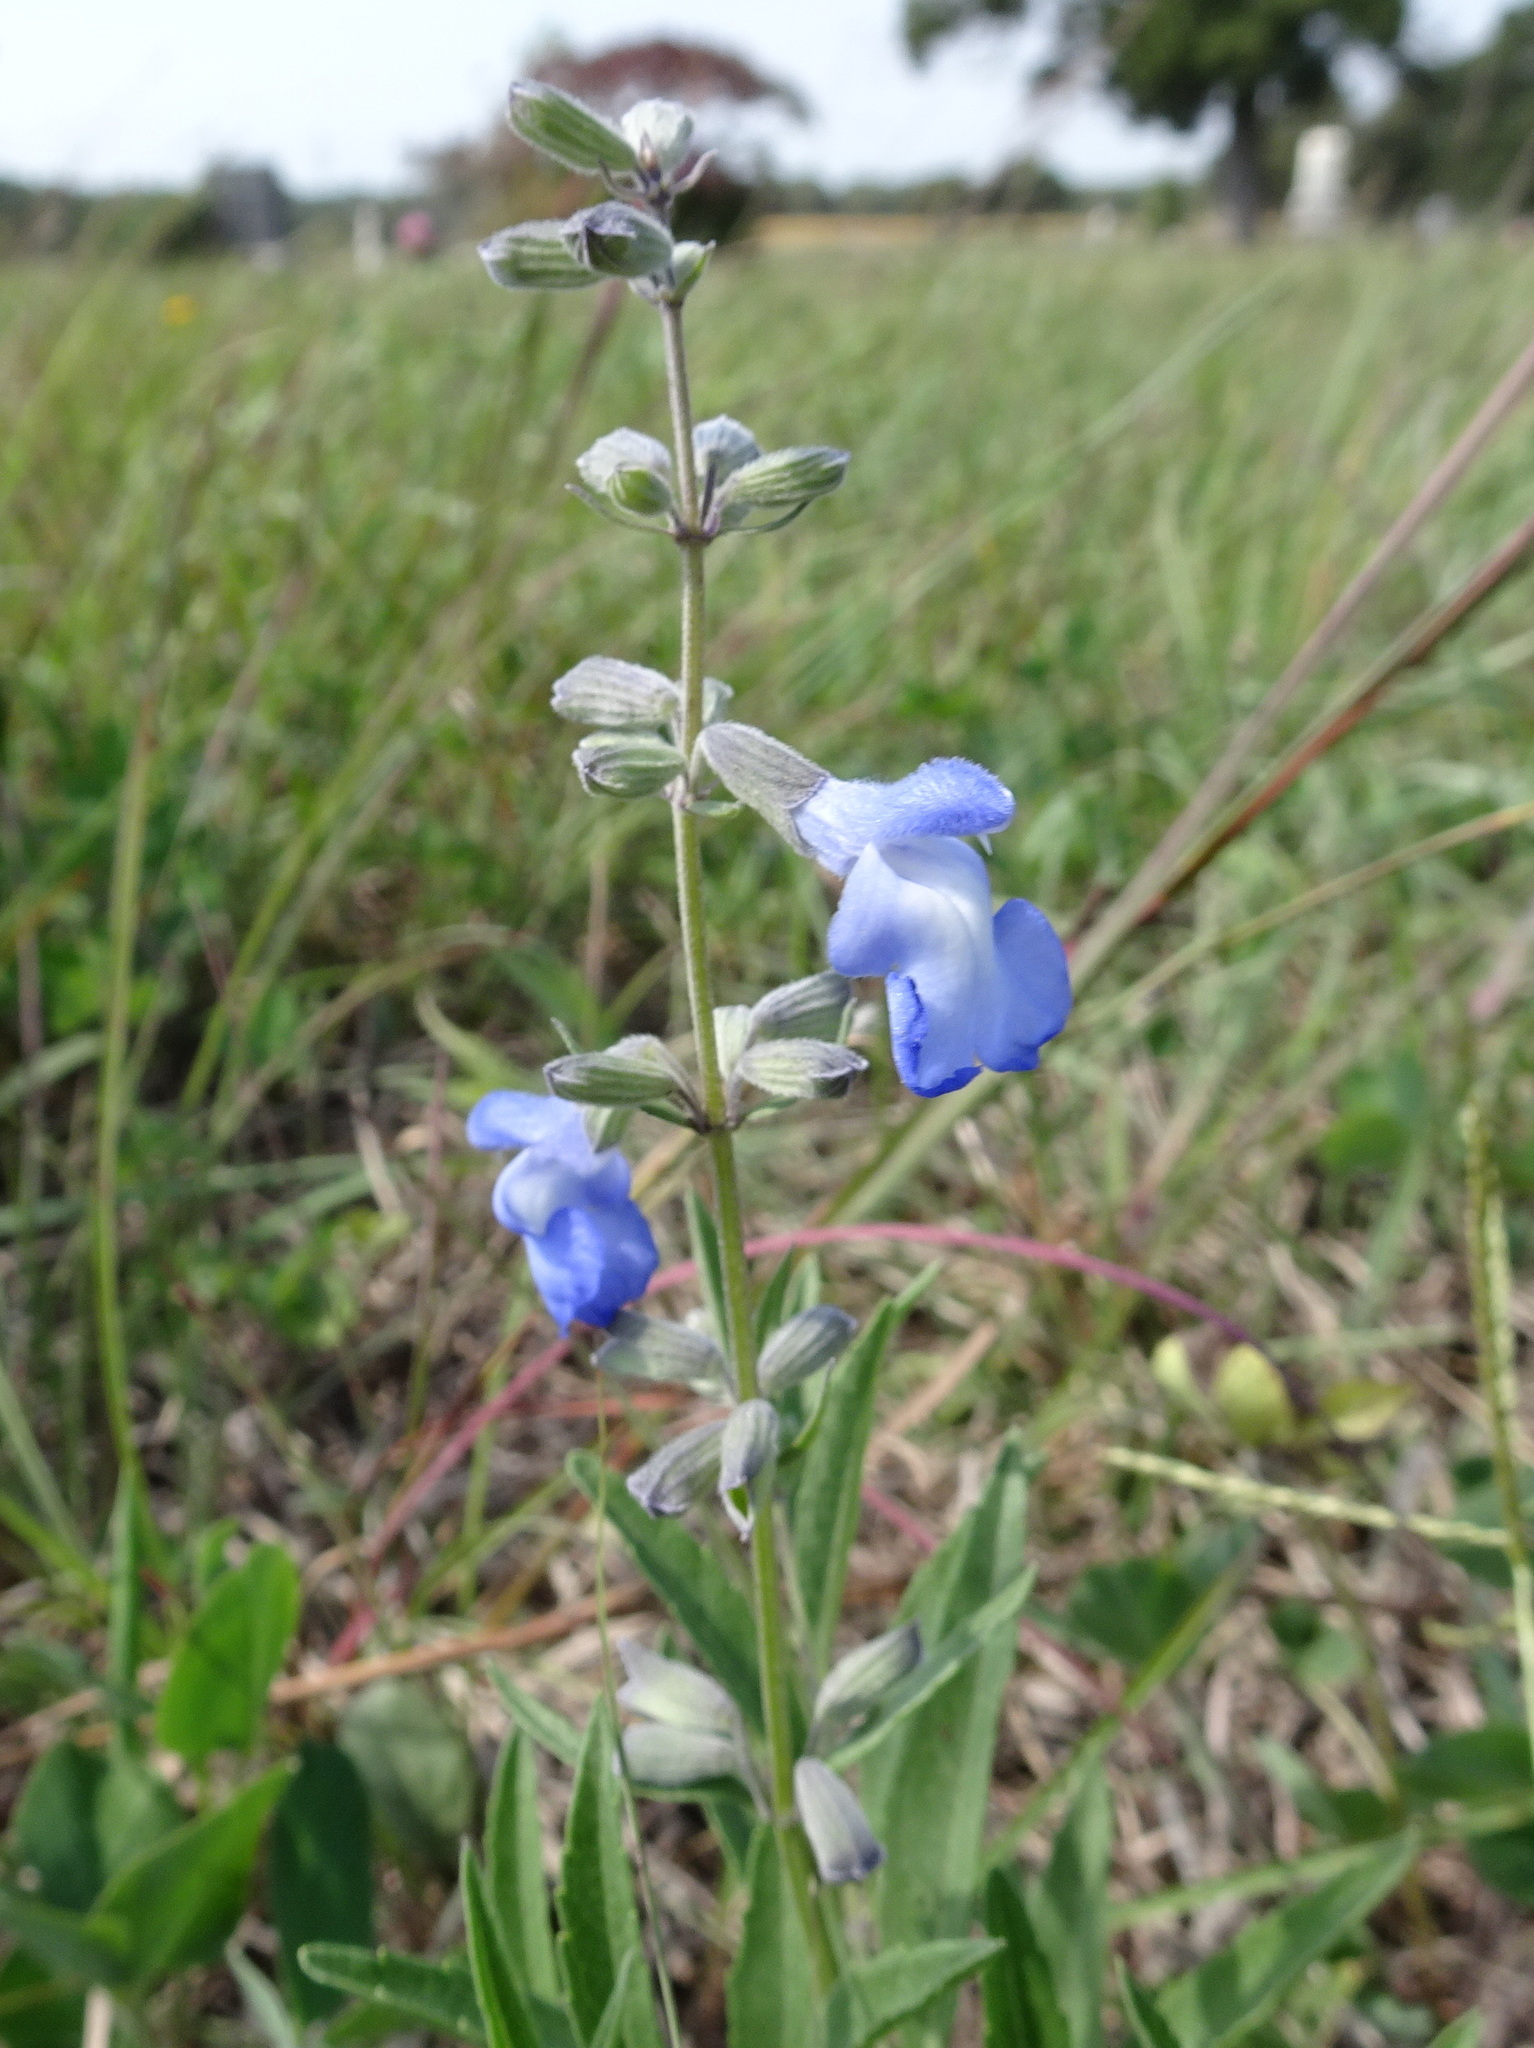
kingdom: Plantae
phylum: Tracheophyta
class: Magnoliopsida
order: Lamiales
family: Lamiaceae
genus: Salvia
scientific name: Salvia azurea
